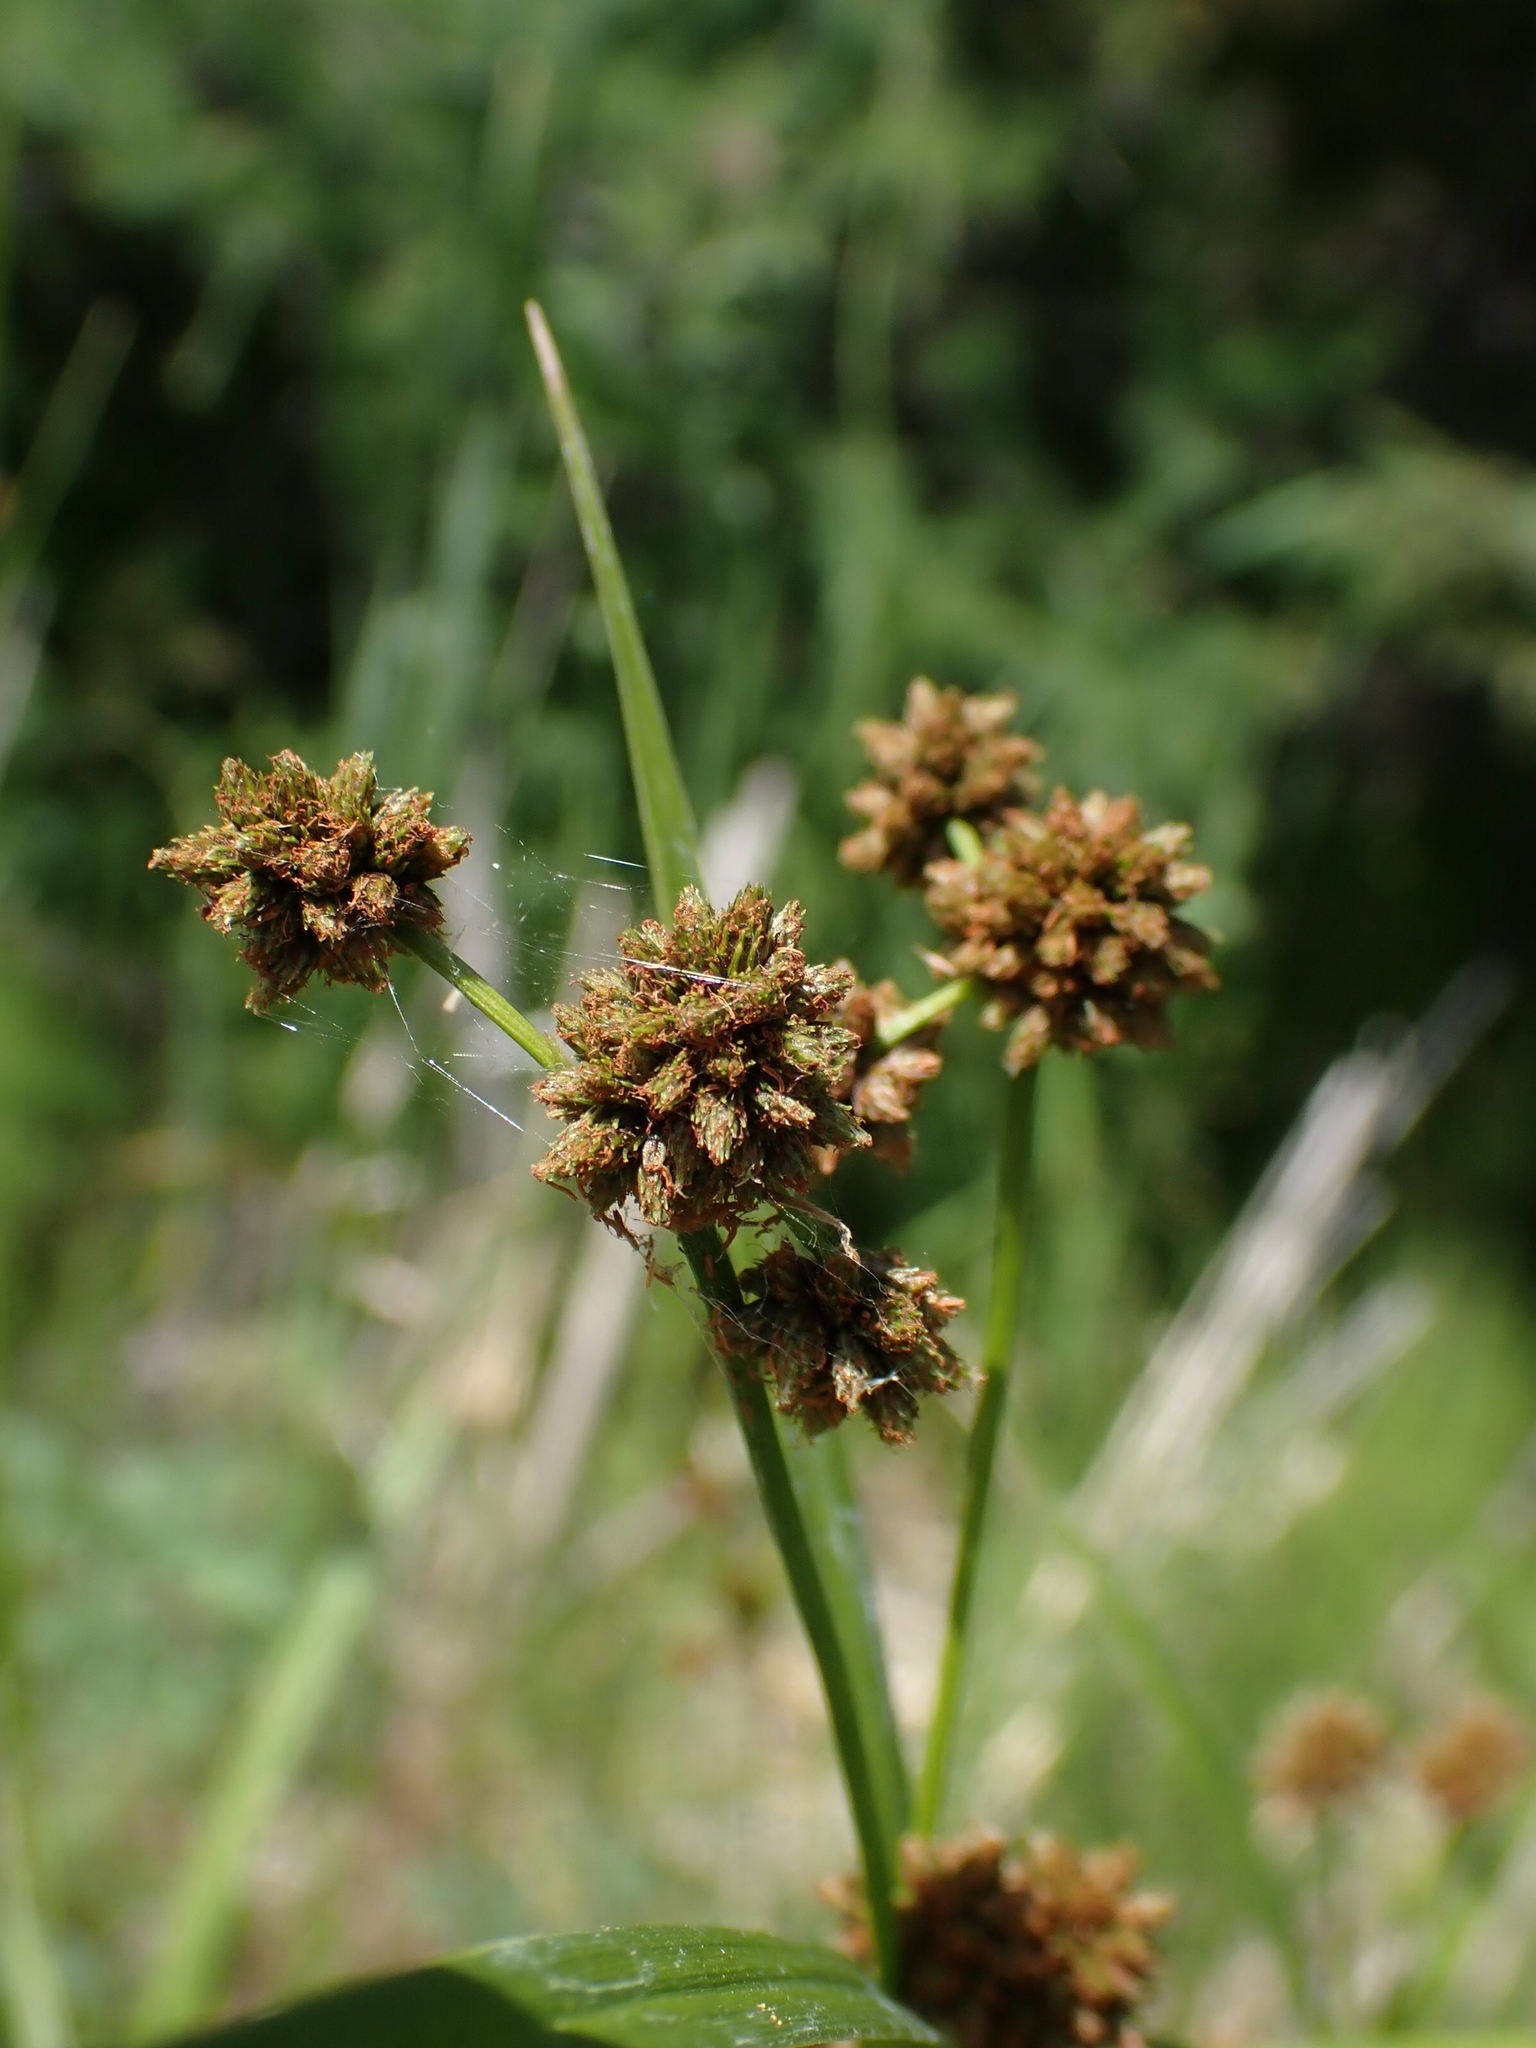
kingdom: Plantae
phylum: Tracheophyta
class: Liliopsida
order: Poales
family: Cyperaceae
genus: Scirpus
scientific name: Scirpus atrovirens
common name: Black bulrush
